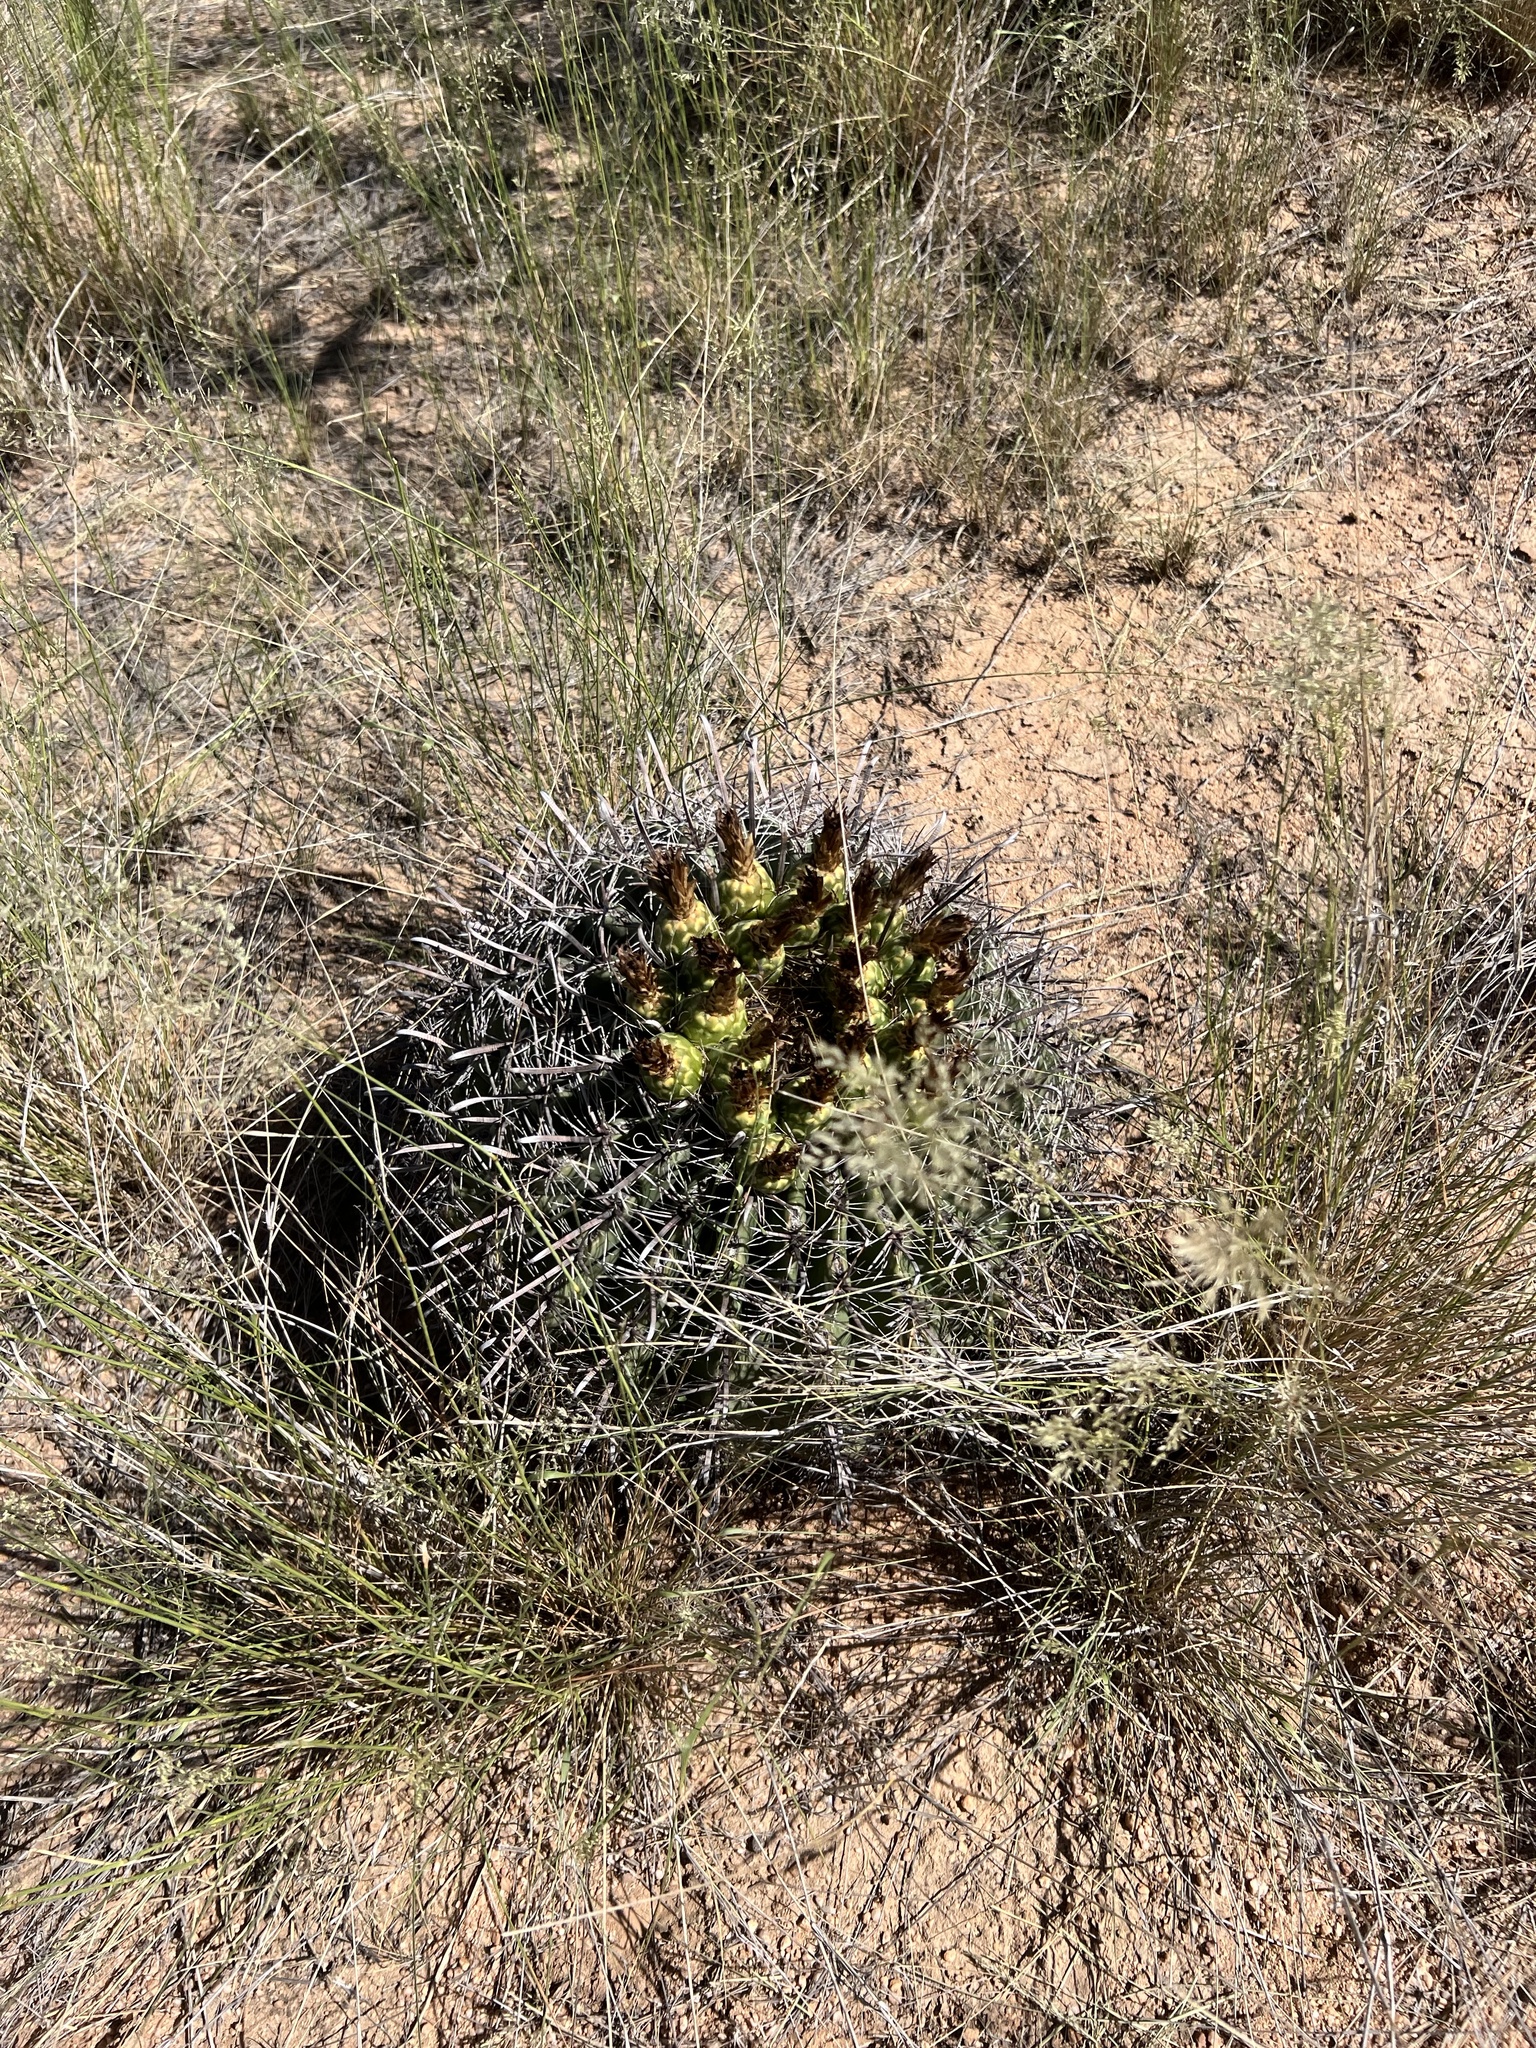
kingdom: Plantae
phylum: Tracheophyta
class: Magnoliopsida
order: Caryophyllales
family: Cactaceae
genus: Ferocactus
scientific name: Ferocactus wislizeni
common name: Candy barrel cactus
